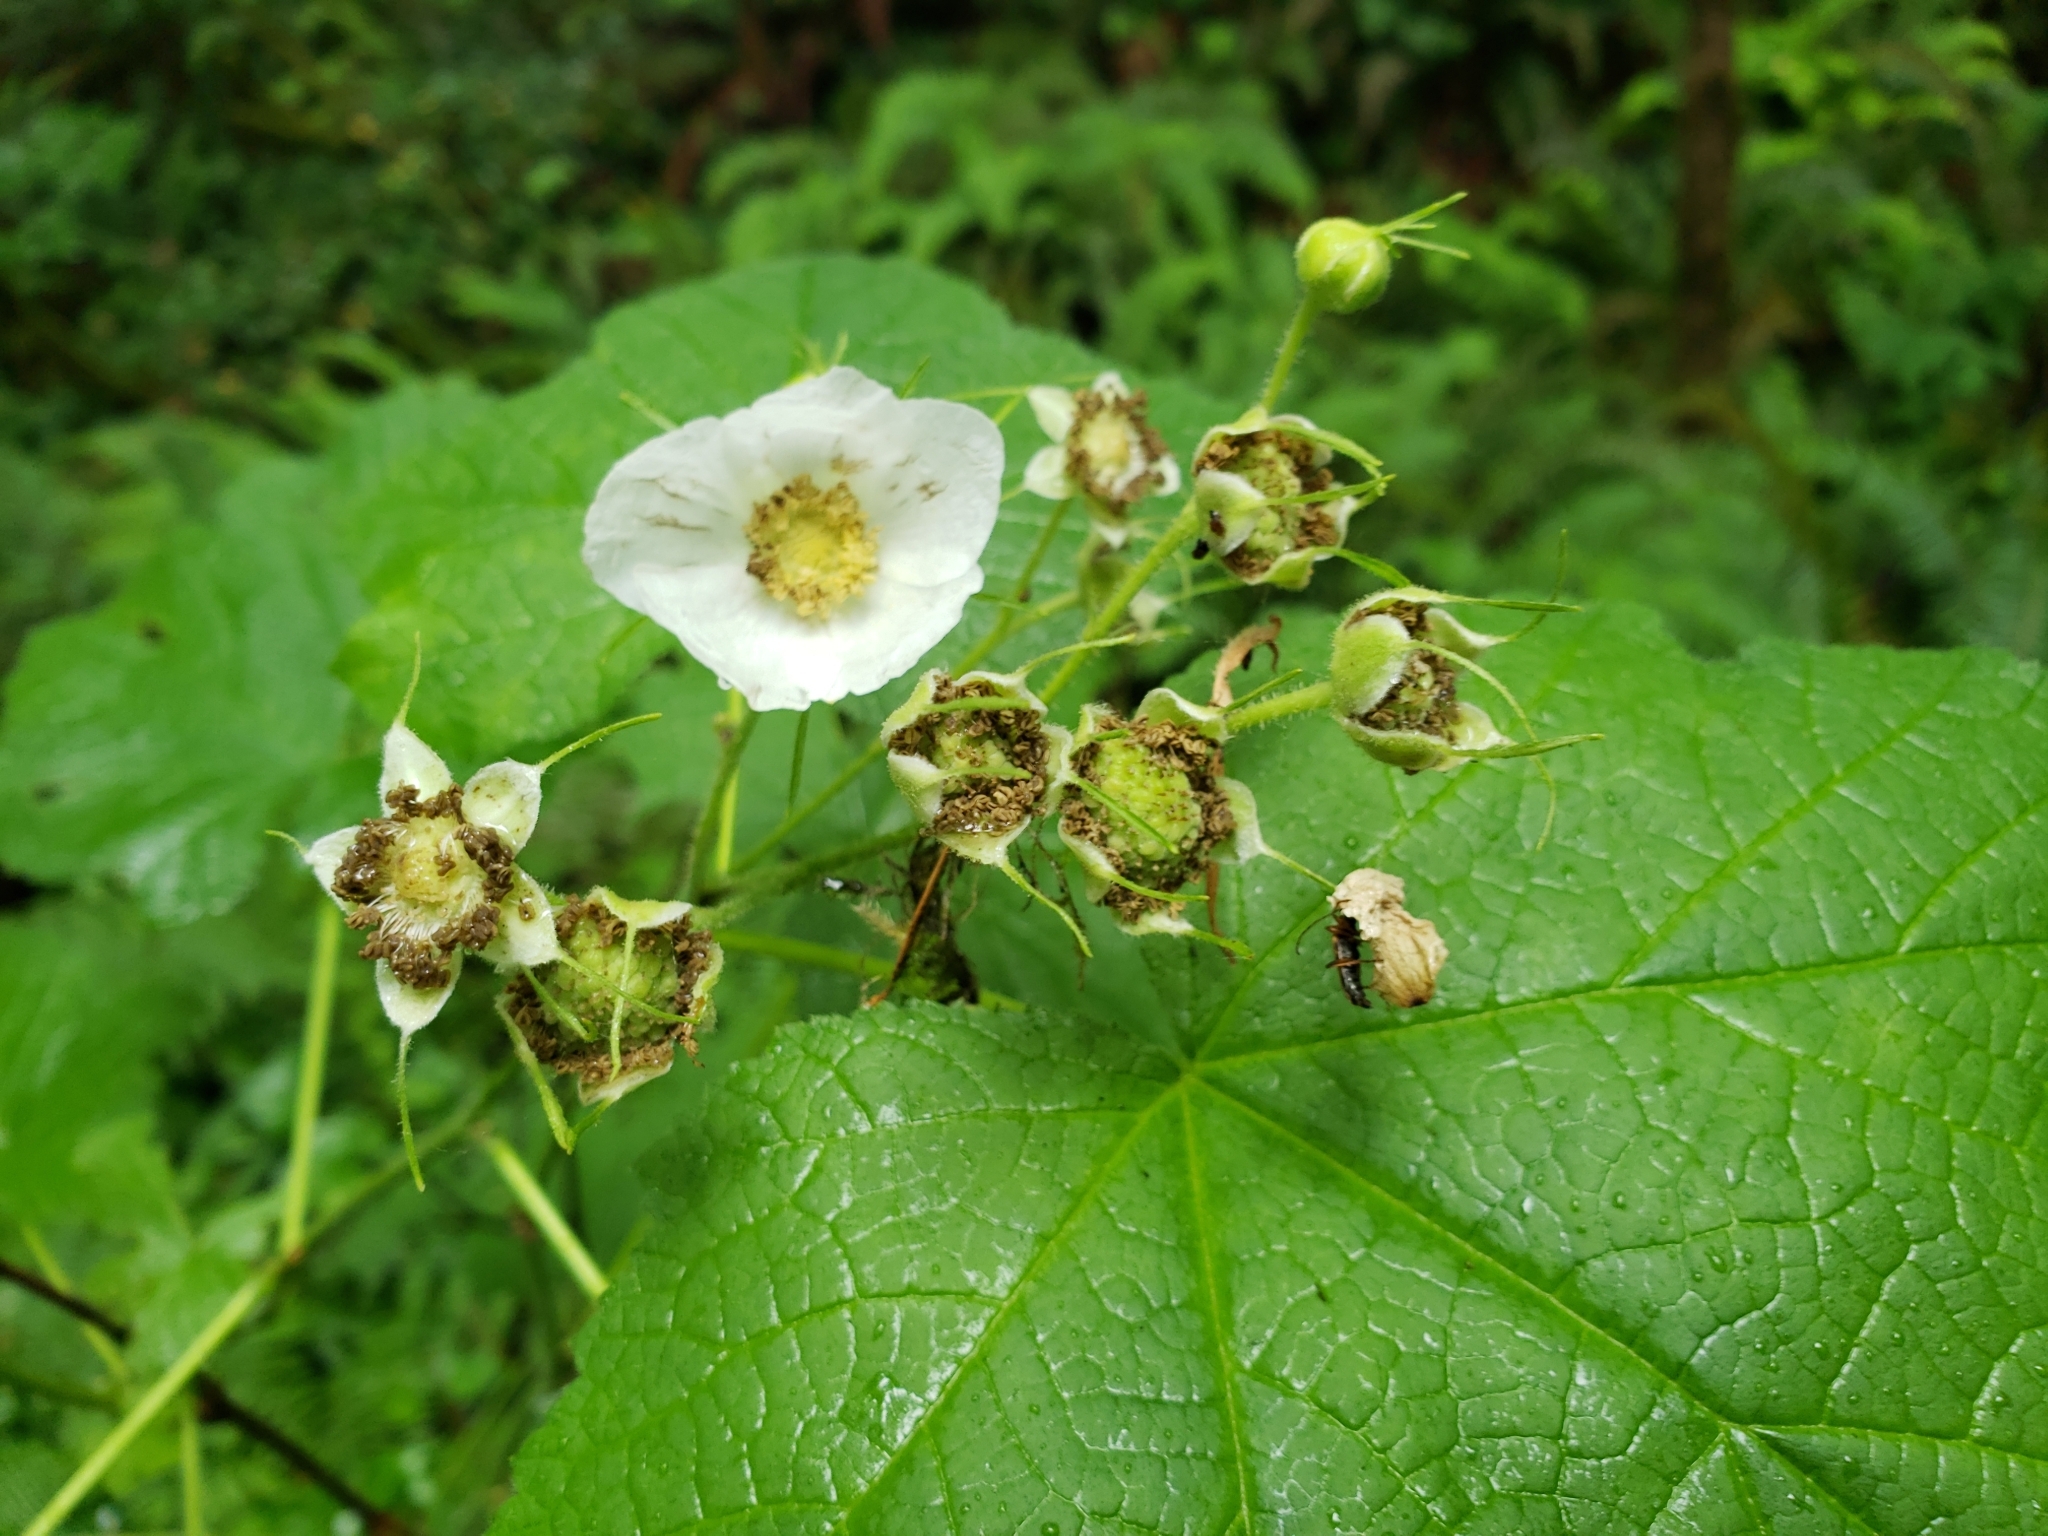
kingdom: Plantae
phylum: Tracheophyta
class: Magnoliopsida
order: Rosales
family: Rosaceae
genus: Rubus
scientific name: Rubus parviflorus
